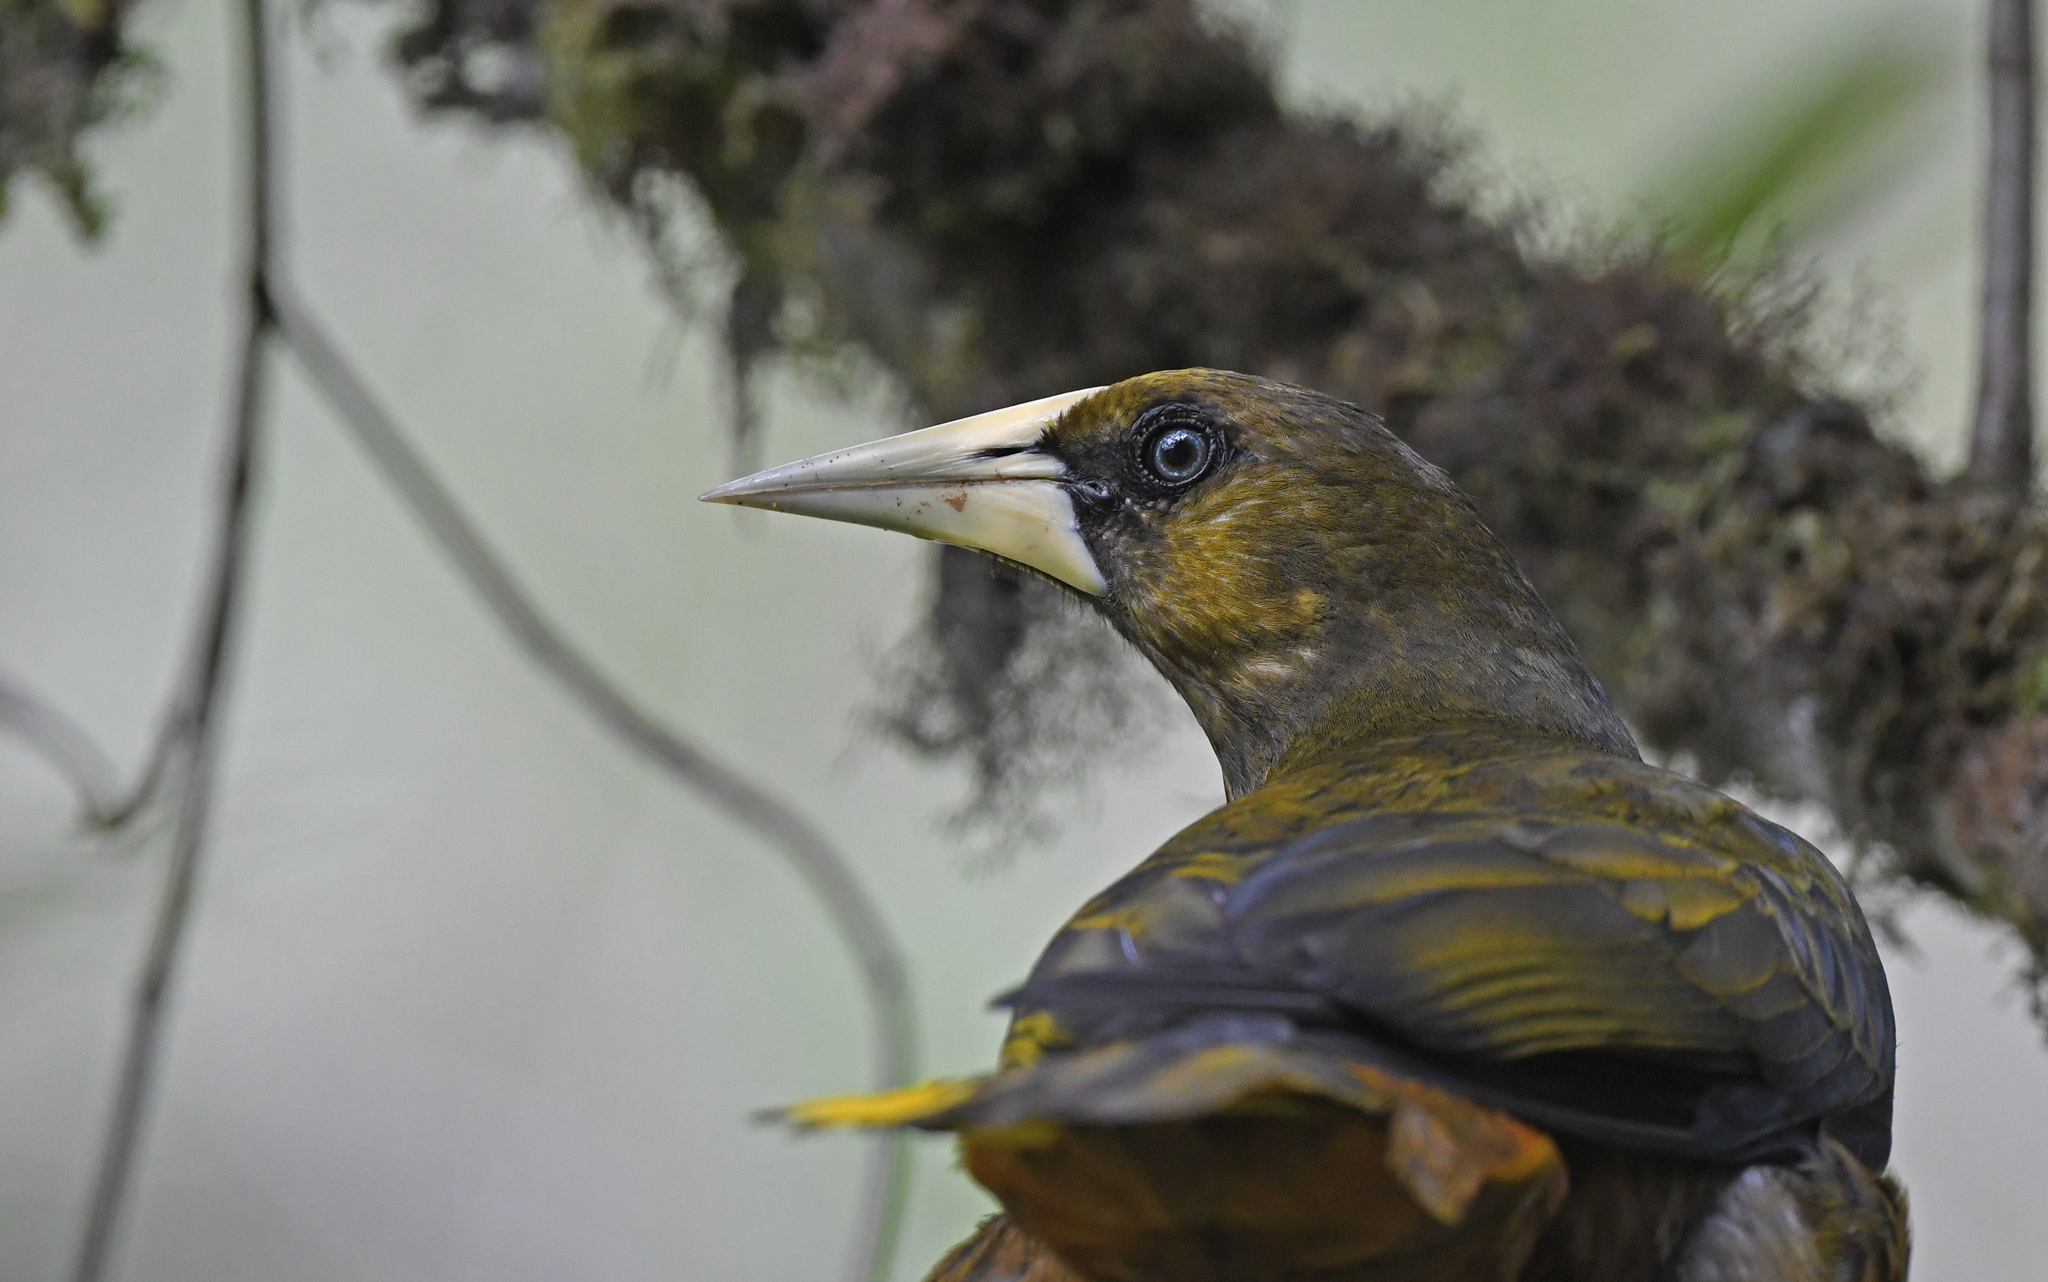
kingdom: Animalia
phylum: Chordata
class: Aves
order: Passeriformes
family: Icteridae
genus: Psarocolius
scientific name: Psarocolius atrovirens
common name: Dusky-green oropendola
